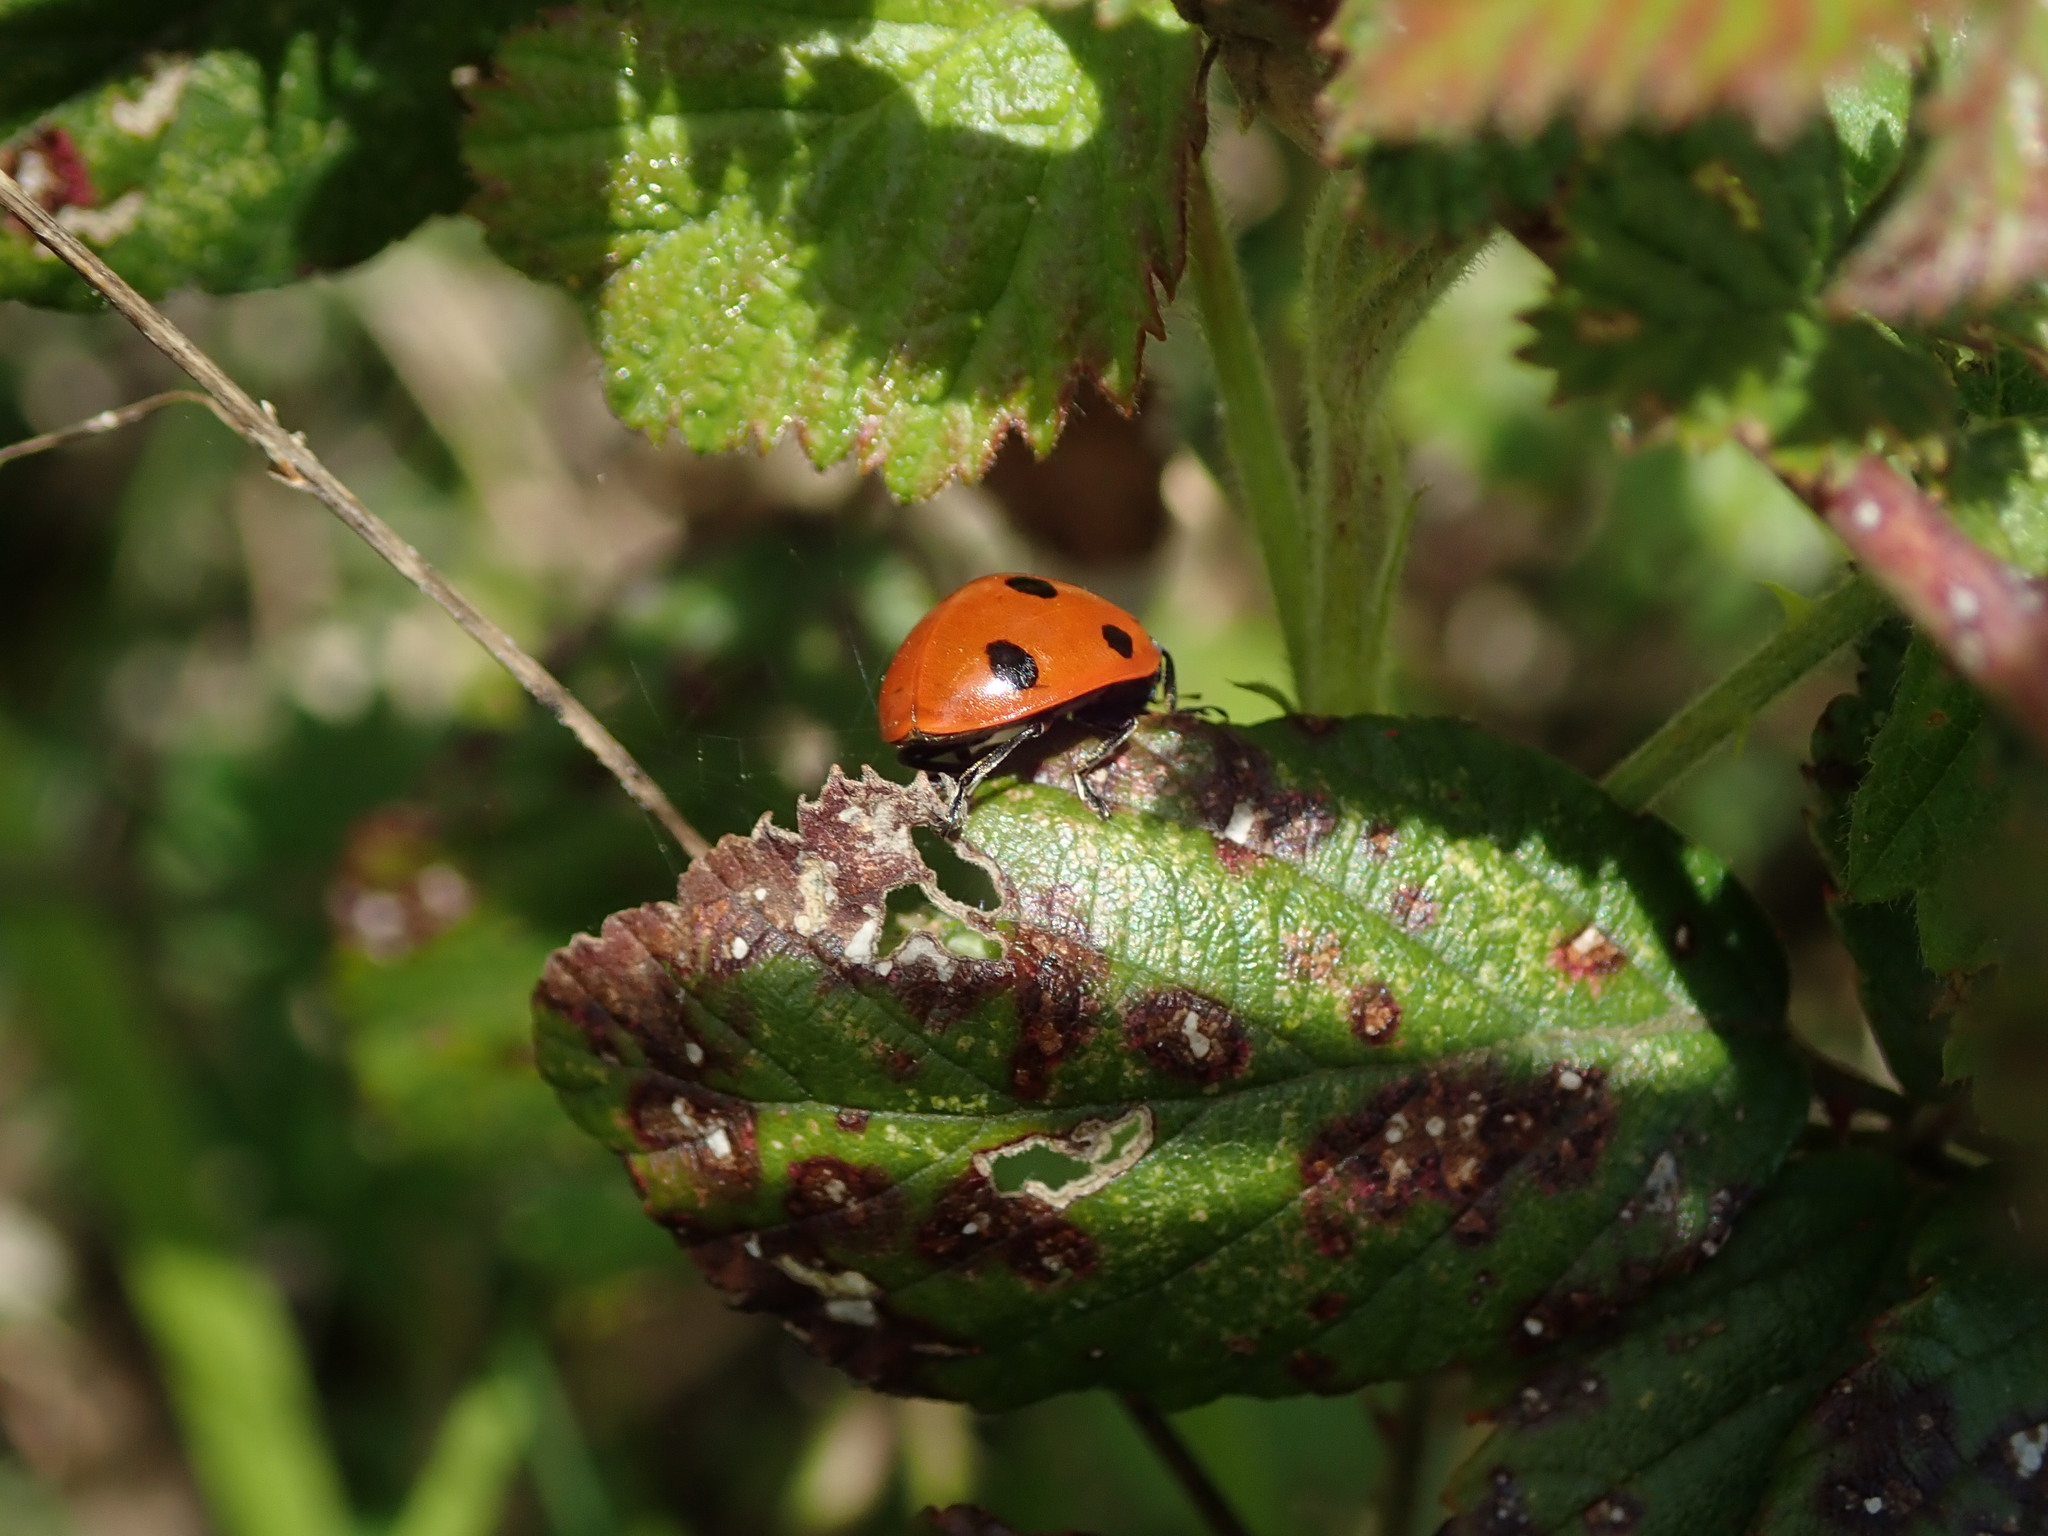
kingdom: Animalia
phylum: Arthropoda
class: Insecta
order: Coleoptera
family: Coccinellidae
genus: Coccinella
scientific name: Coccinella septempunctata
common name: Sevenspotted lady beetle
